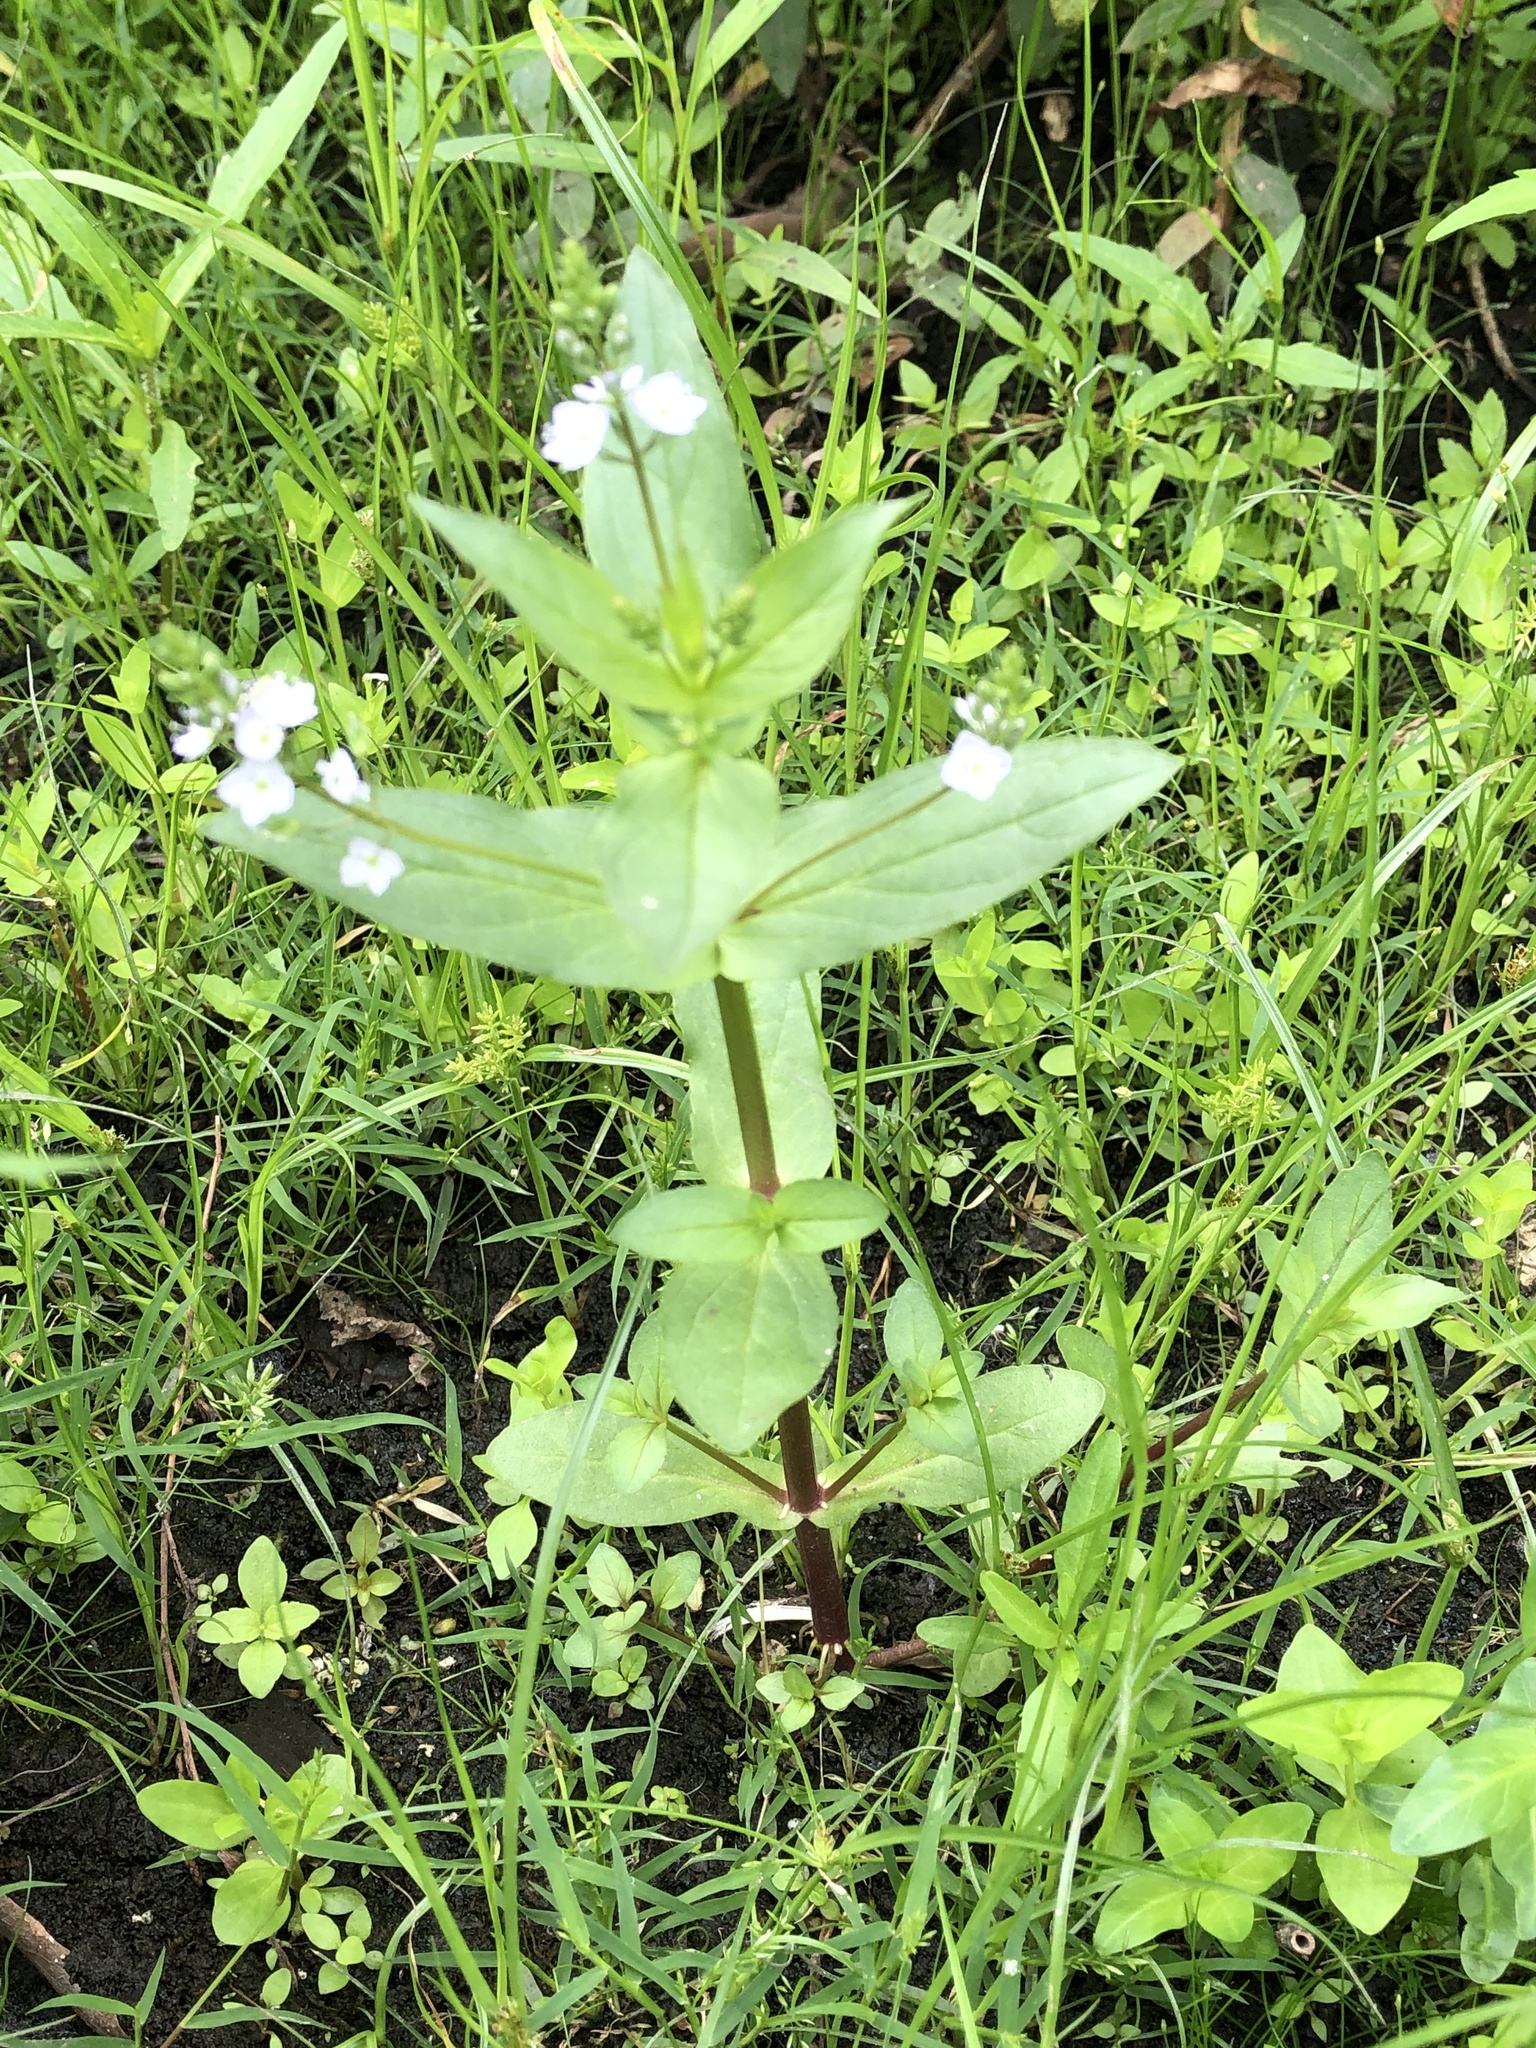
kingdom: Plantae
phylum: Tracheophyta
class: Magnoliopsida
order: Lamiales
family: Plantaginaceae
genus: Veronica
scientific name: Veronica catenata
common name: Pink water-speedwell
